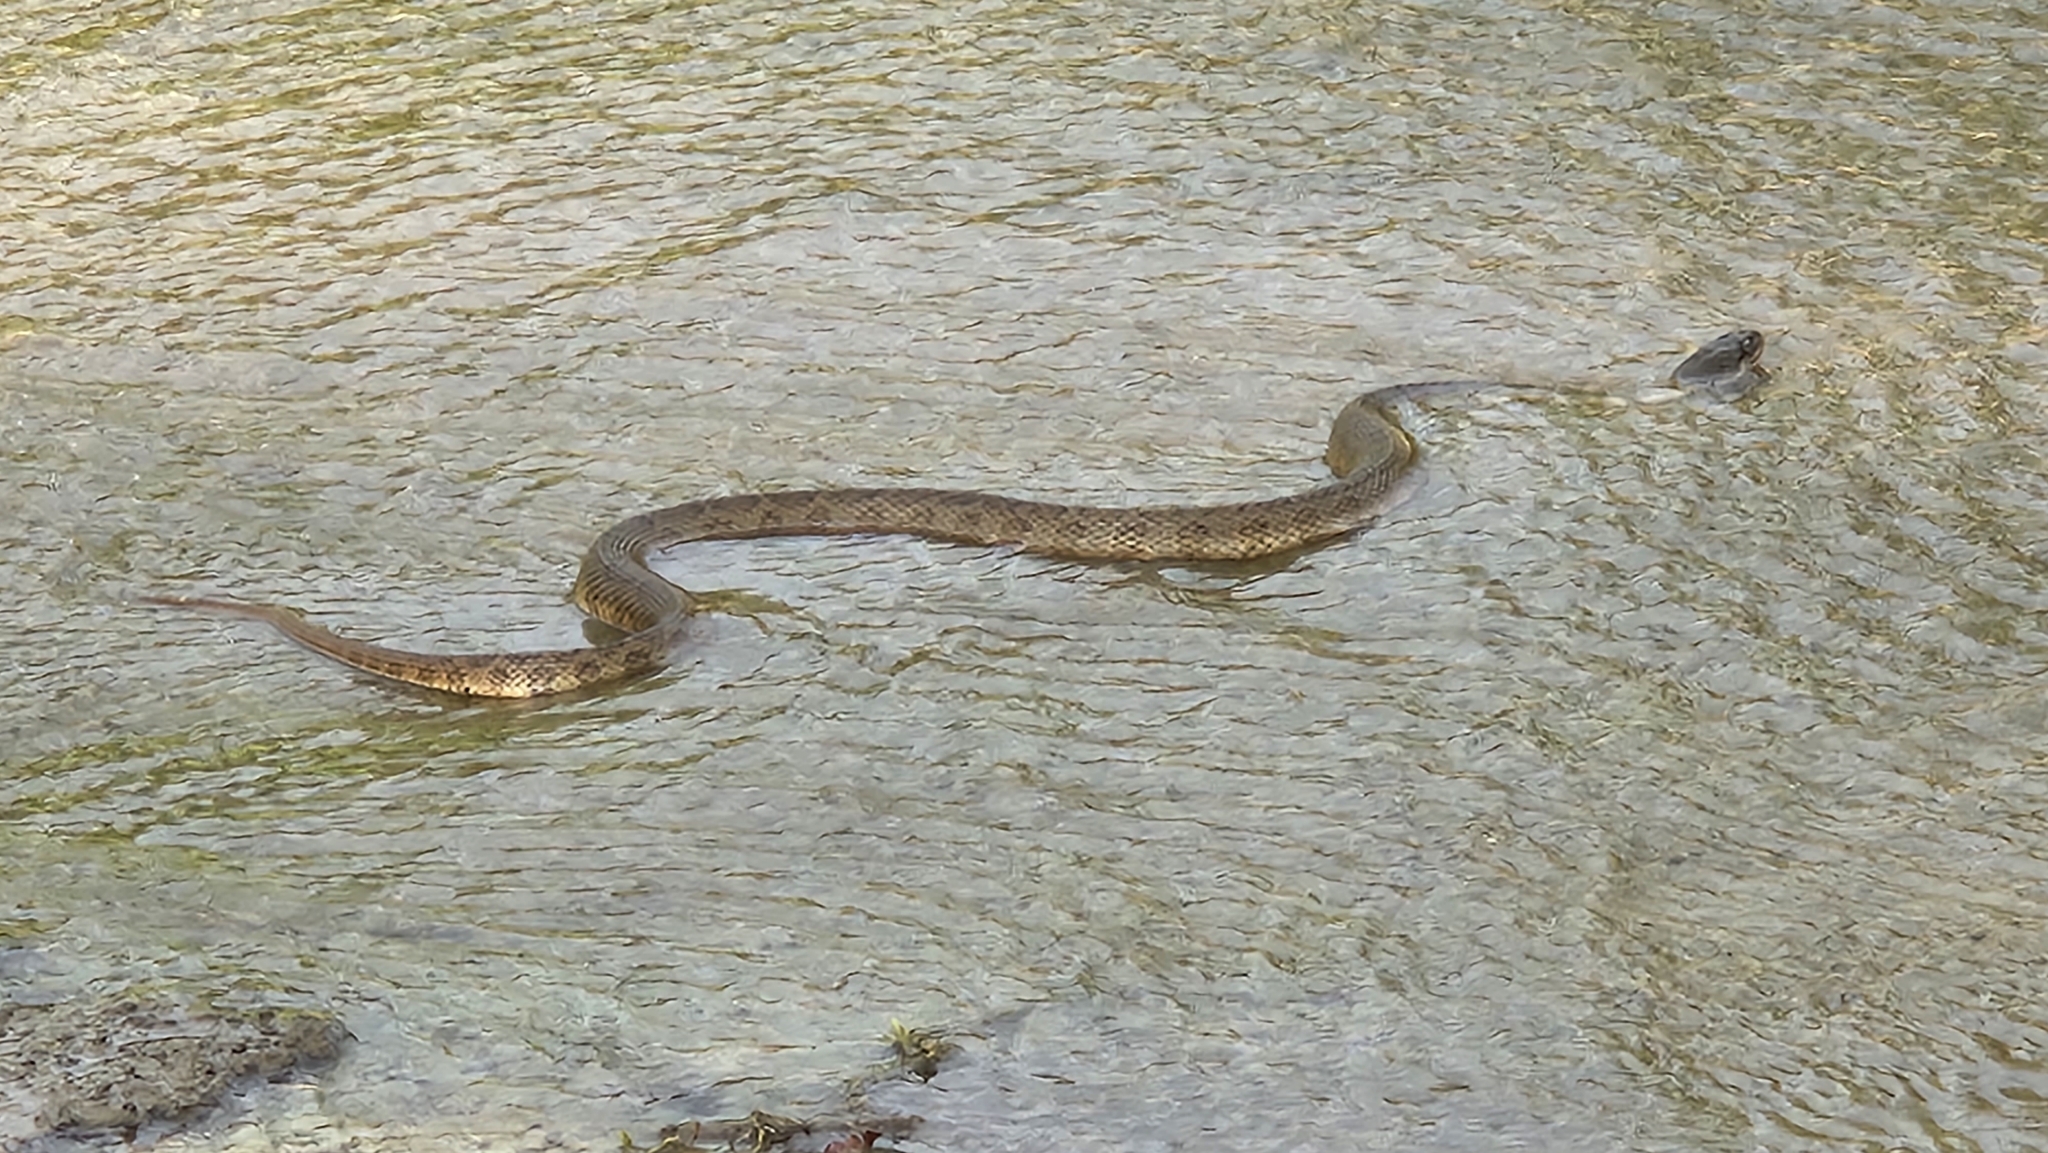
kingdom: Animalia
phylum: Chordata
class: Squamata
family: Colubridae
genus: Nerodia
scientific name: Nerodia erythrogaster
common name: Plainbelly water snake
